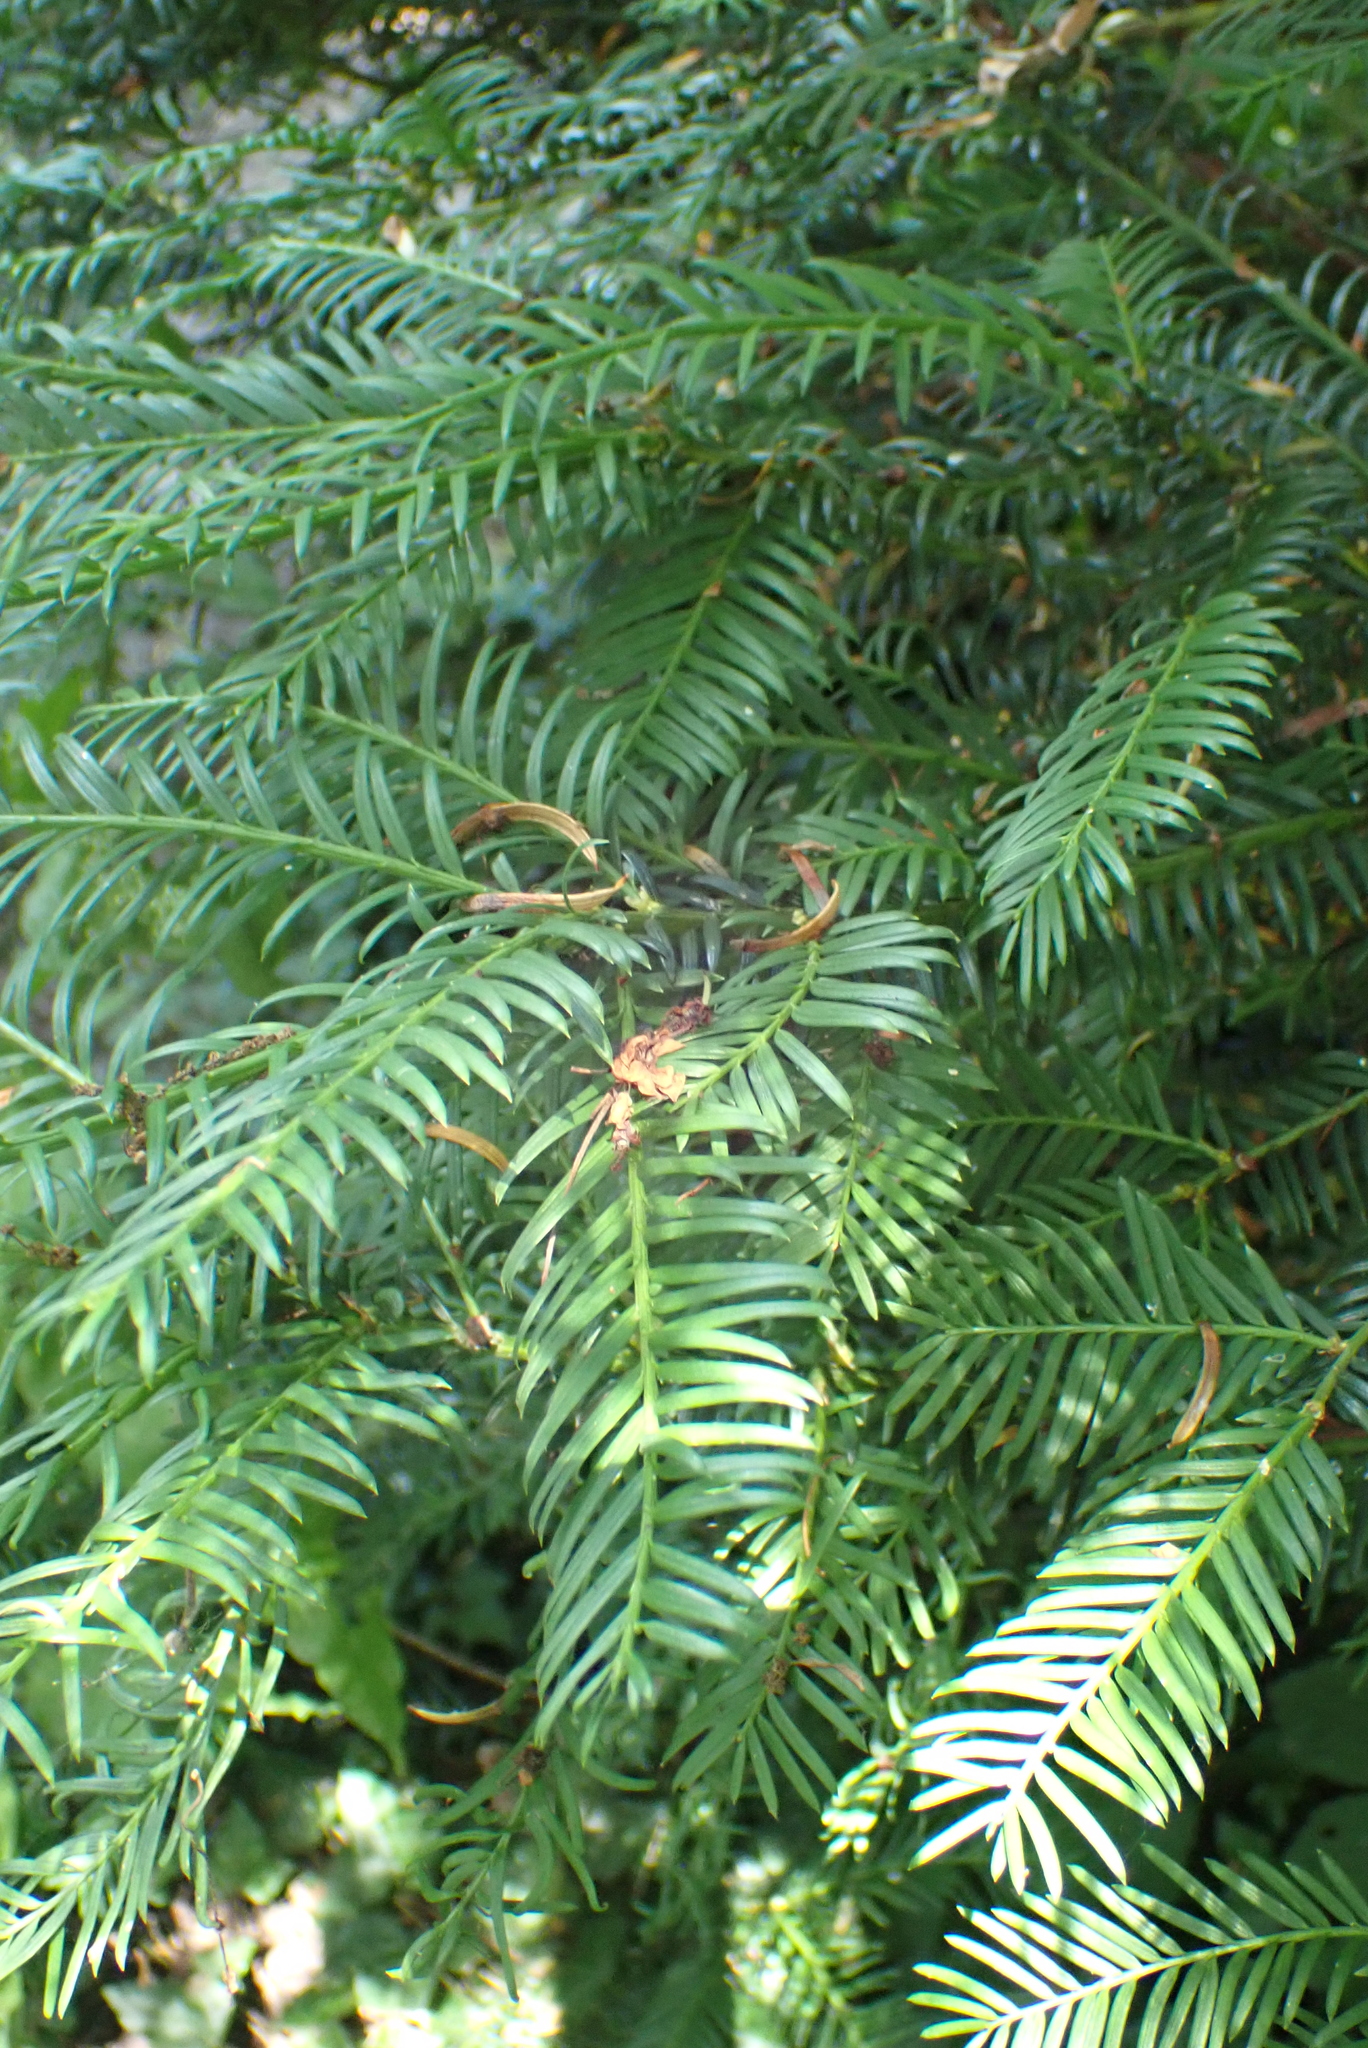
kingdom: Plantae
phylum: Tracheophyta
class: Pinopsida
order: Pinales
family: Taxaceae
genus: Taxus
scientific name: Taxus baccata
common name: Yew
